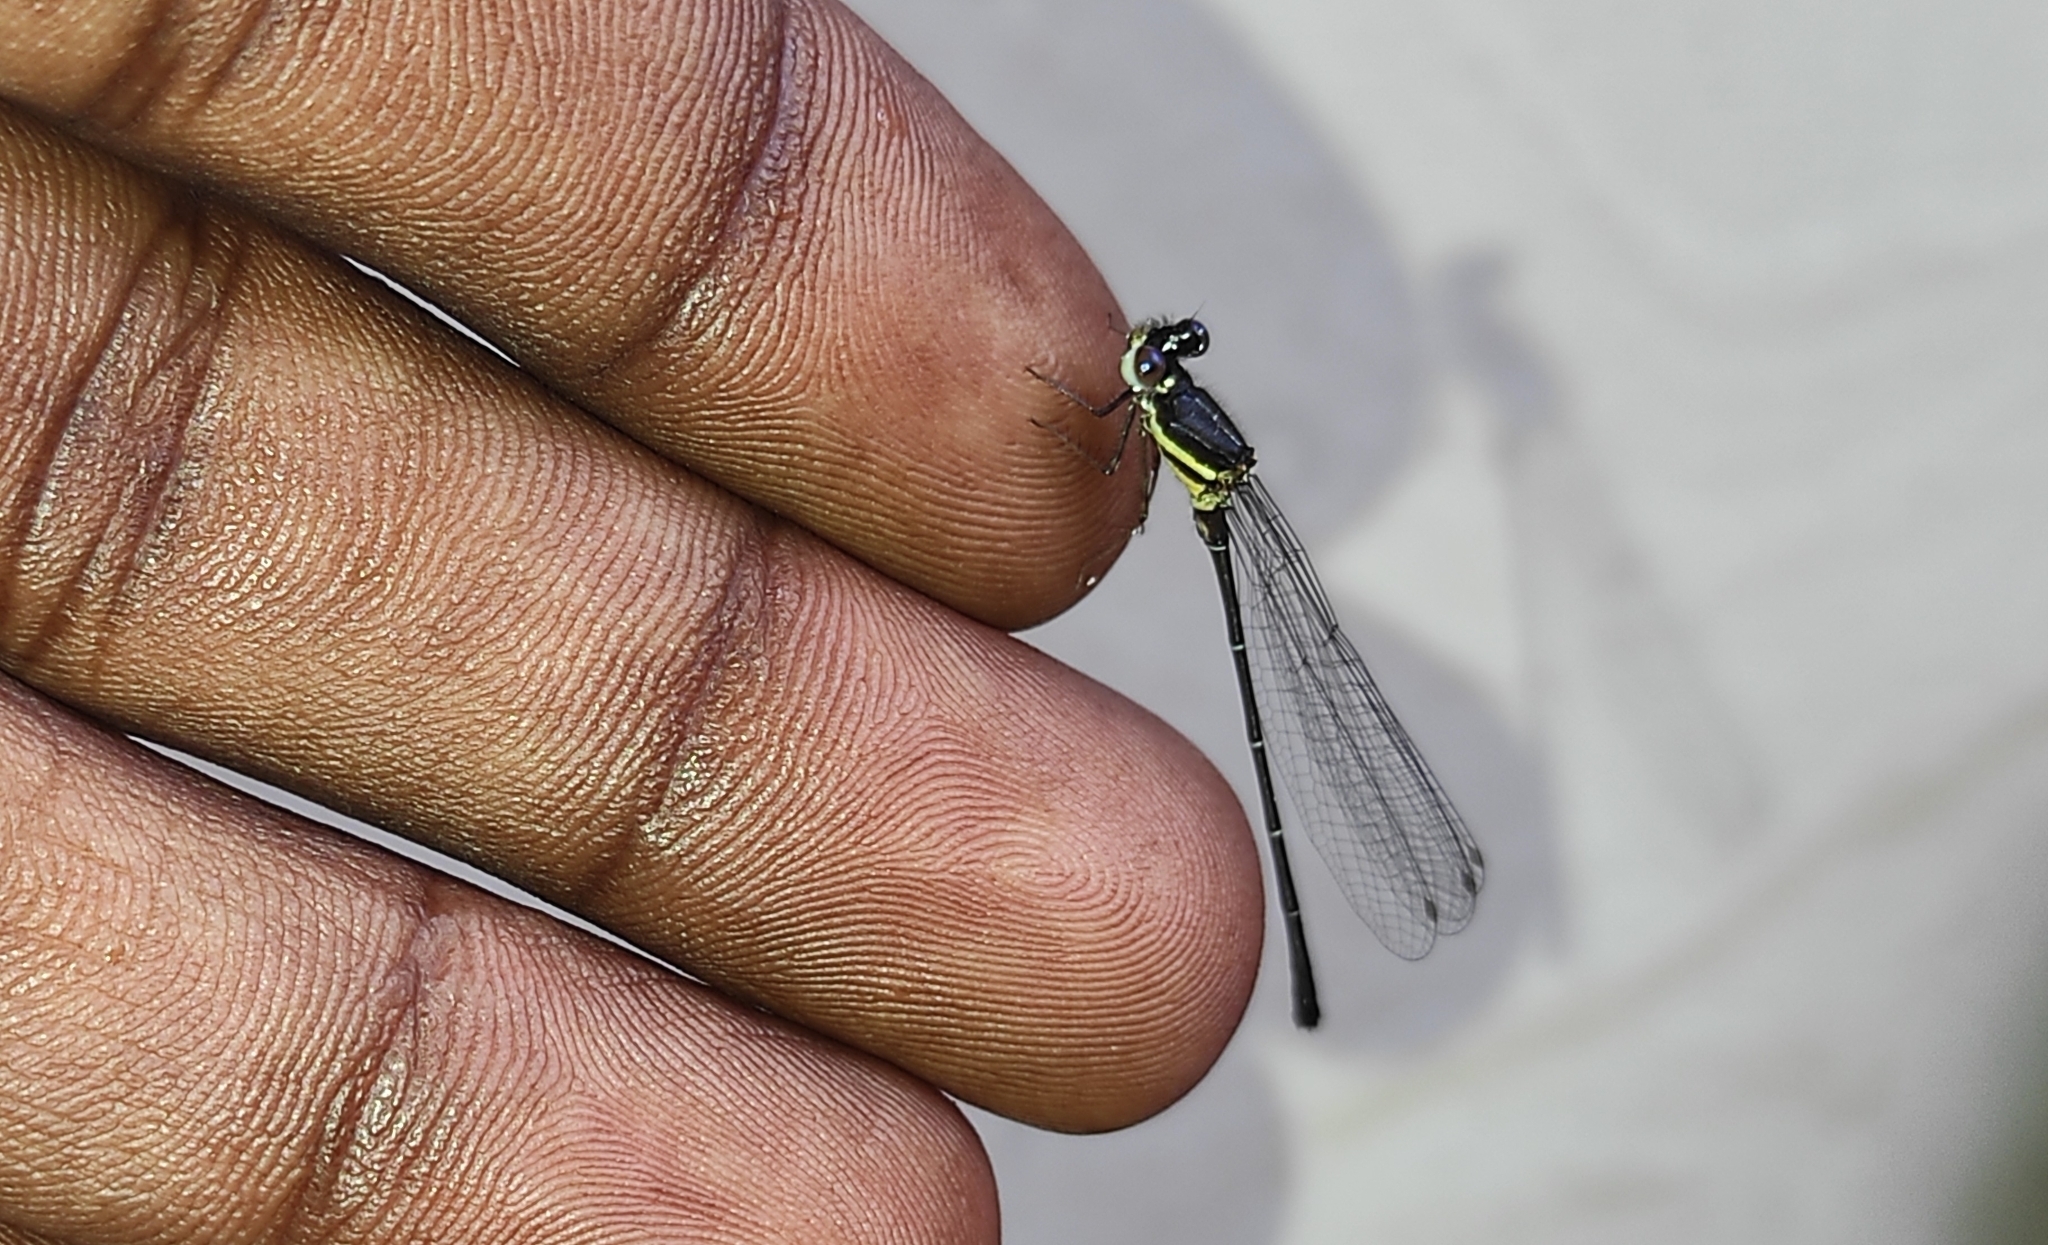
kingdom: Animalia
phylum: Arthropoda
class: Insecta
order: Odonata
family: Platycnemididae
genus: Onychargia
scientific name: Onychargia atrocyana
